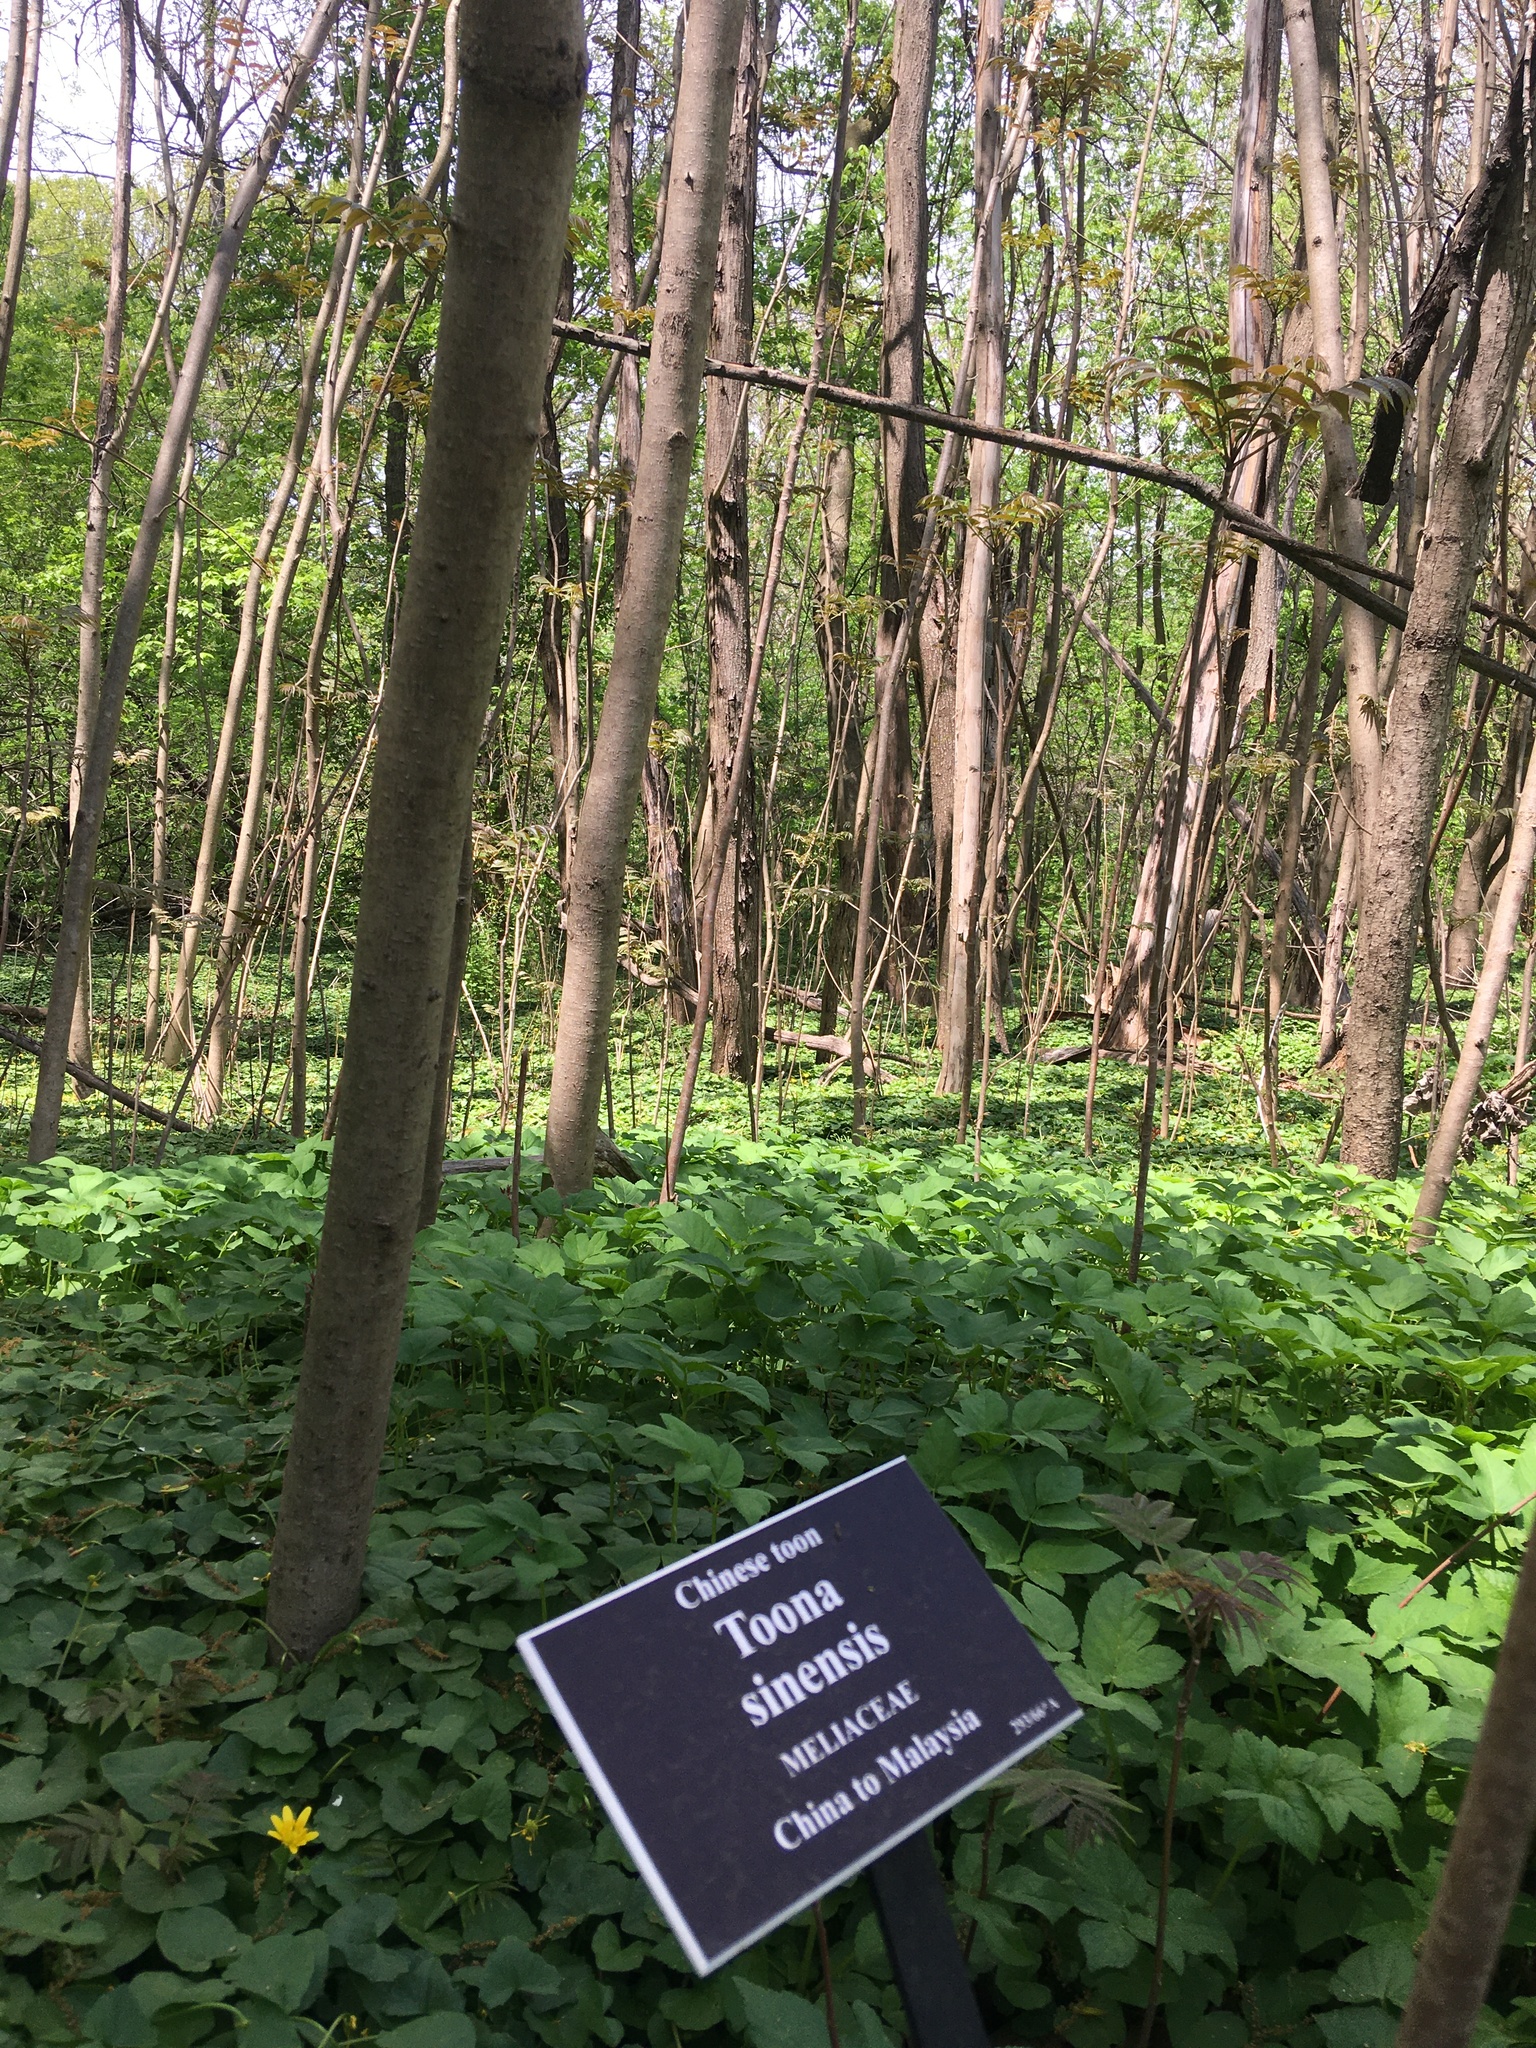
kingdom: Plantae
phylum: Tracheophyta
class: Magnoliopsida
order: Sapindales
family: Meliaceae
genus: Toona
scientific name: Toona sinensis
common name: Red toon
